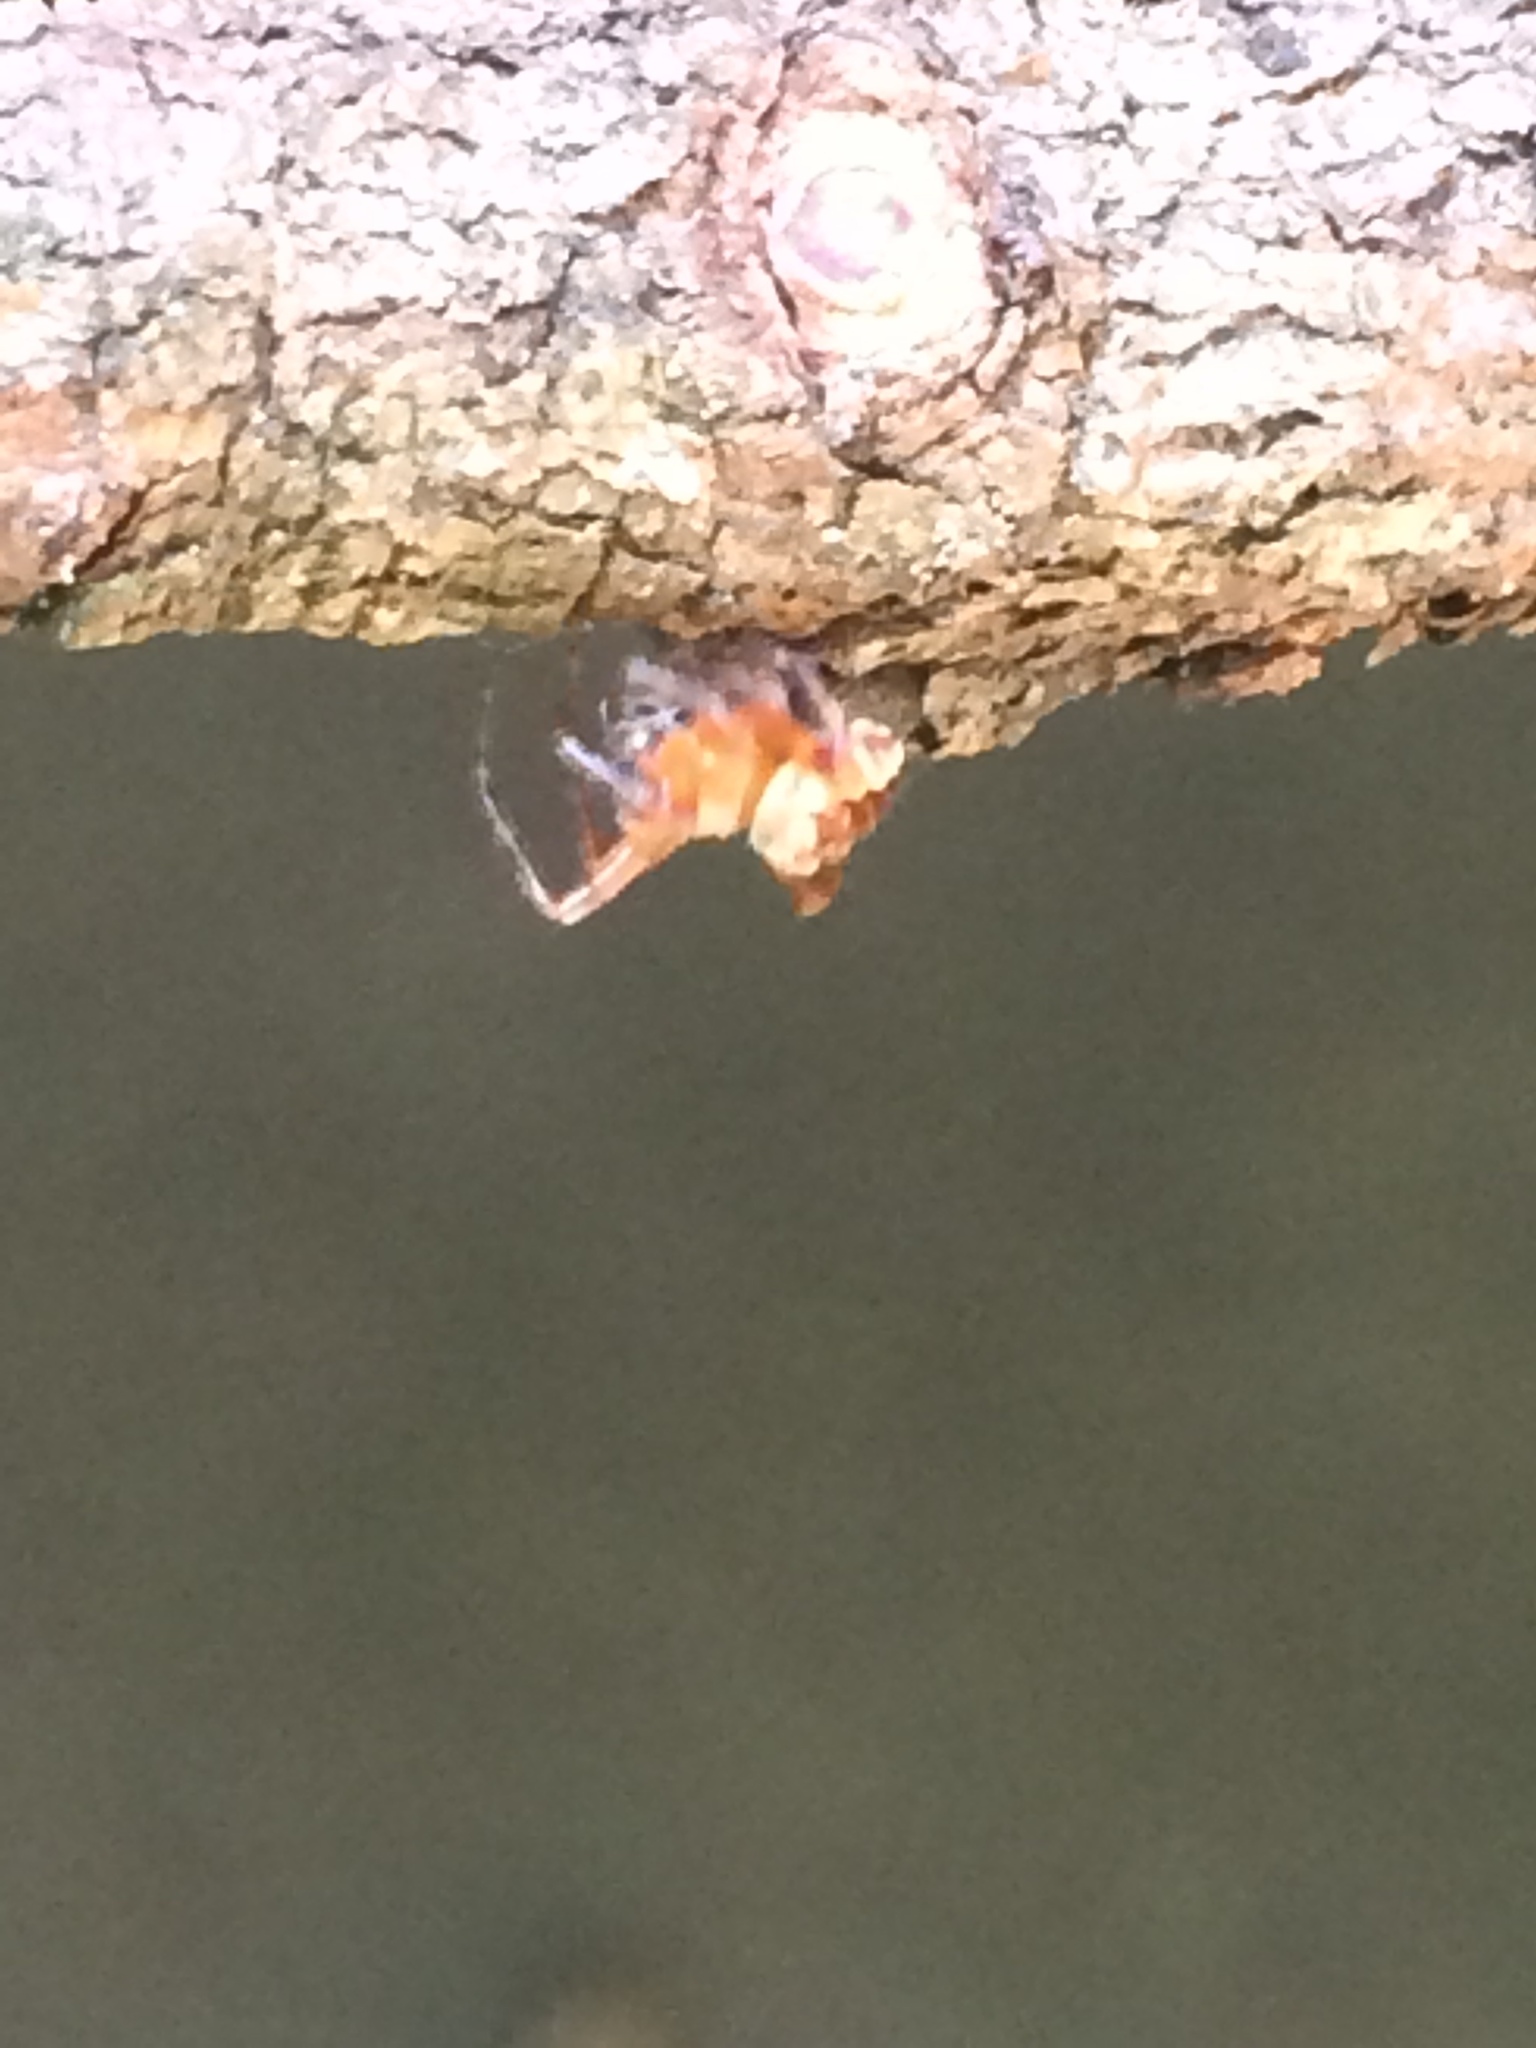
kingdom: Animalia
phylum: Arthropoda
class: Arachnida
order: Araneae
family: Araneidae
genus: Araneus
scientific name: Araneus diadematus
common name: Cross orbweaver
